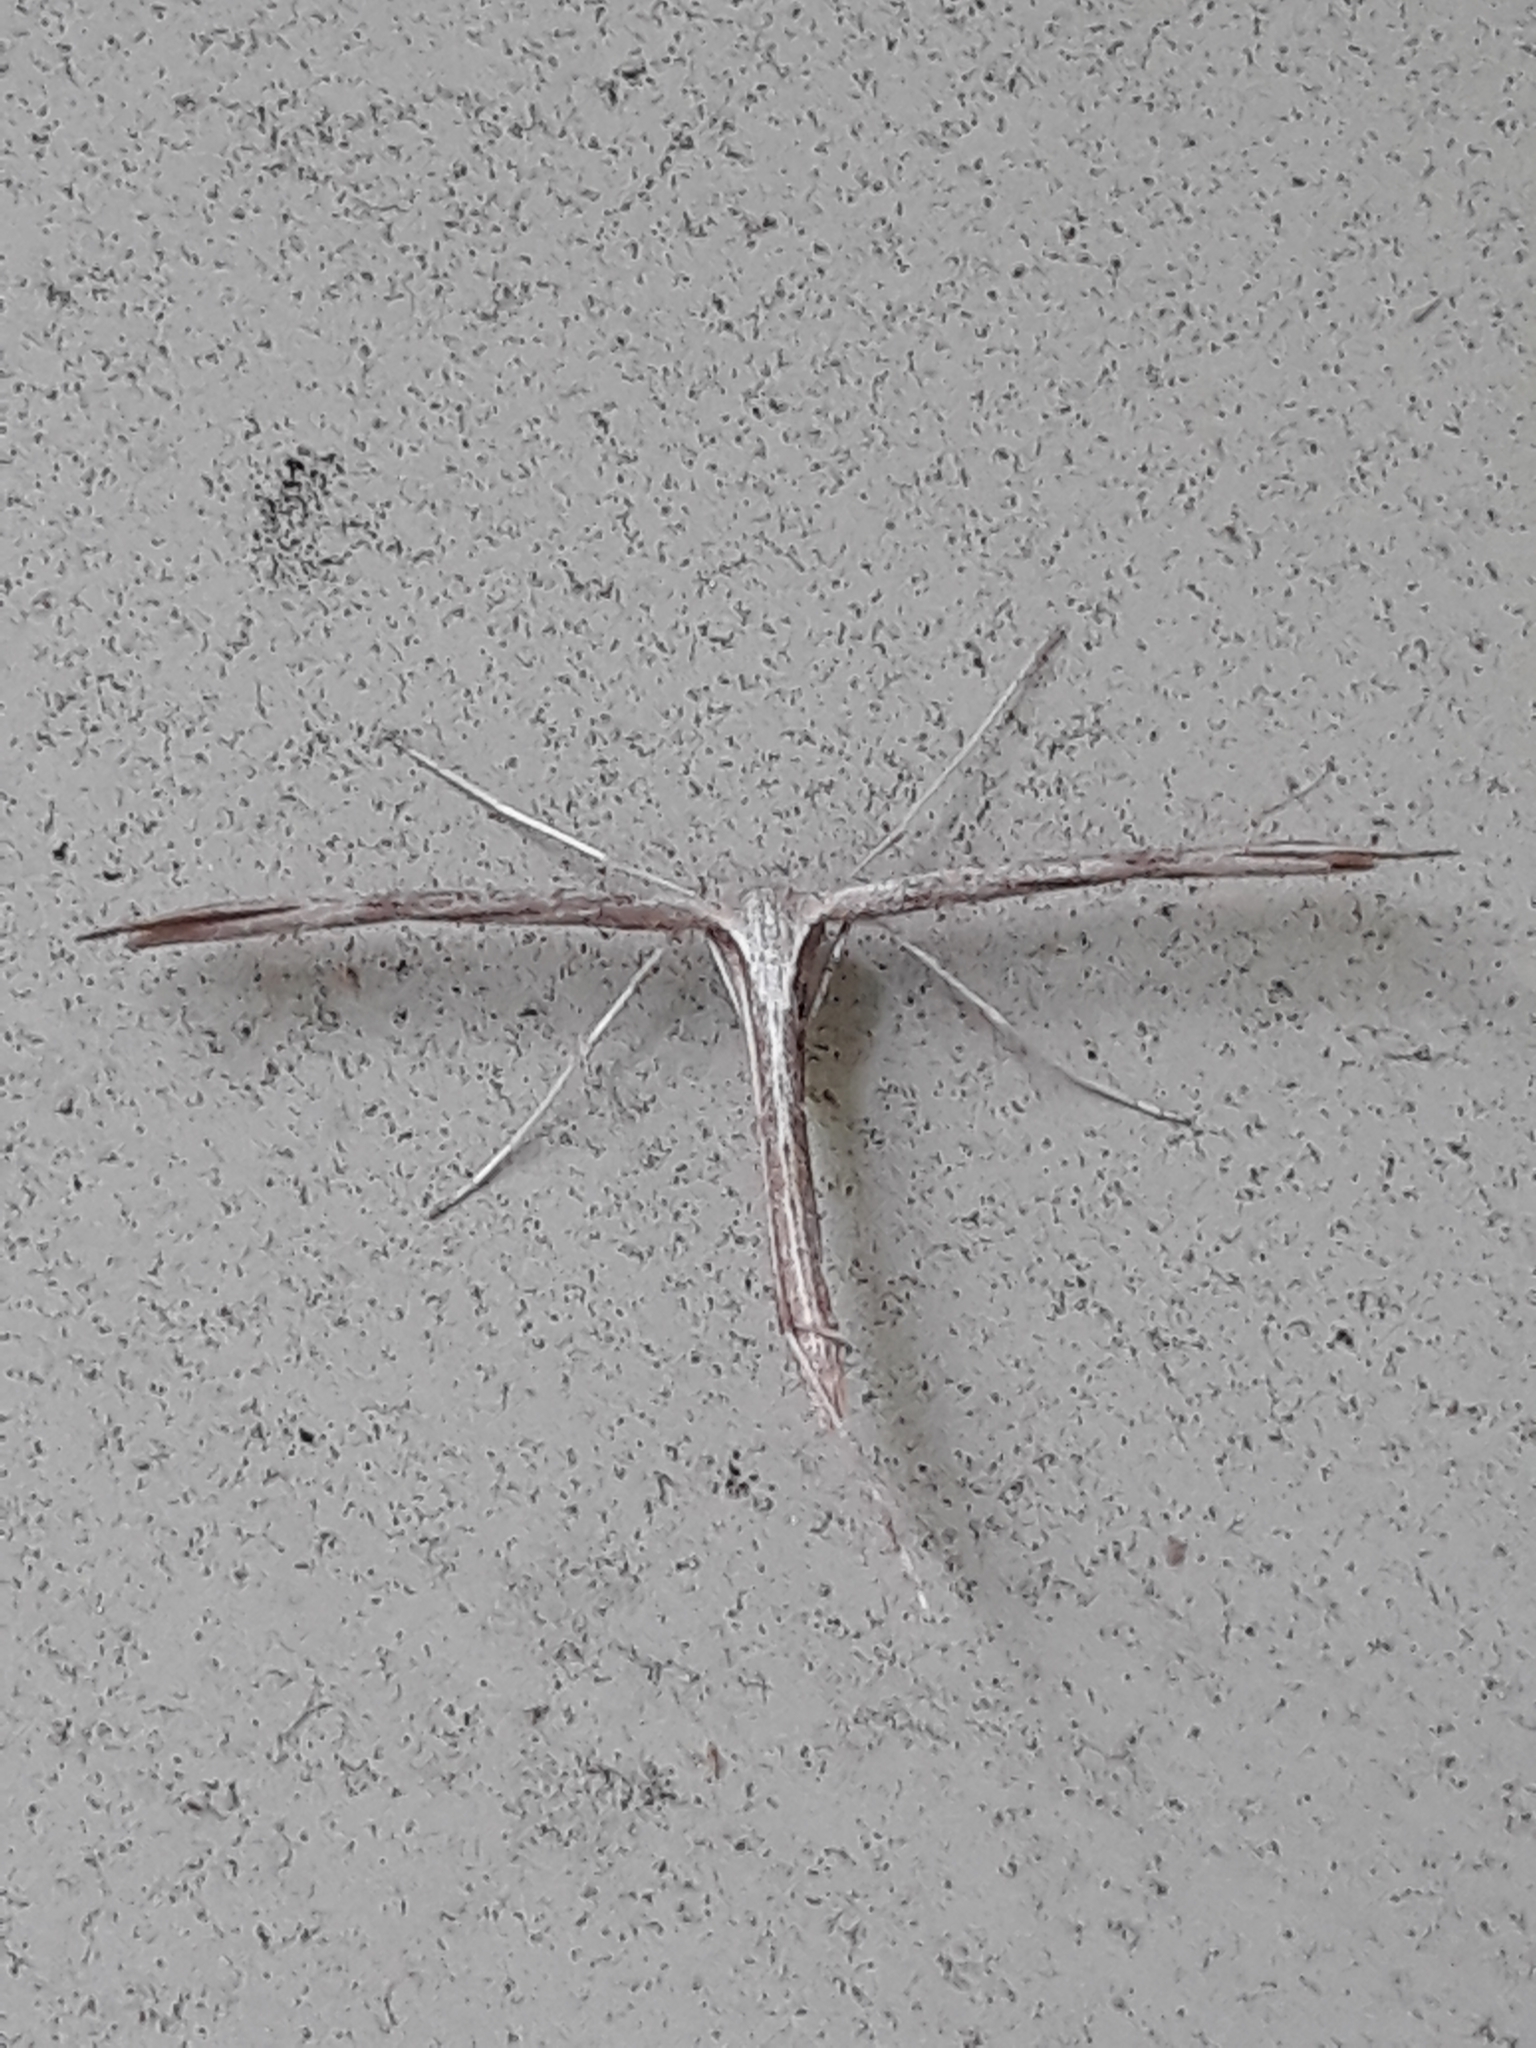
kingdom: Animalia
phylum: Arthropoda
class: Insecta
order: Lepidoptera
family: Pterophoridae
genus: Emmelina
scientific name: Emmelina monodactyla
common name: Common plume
